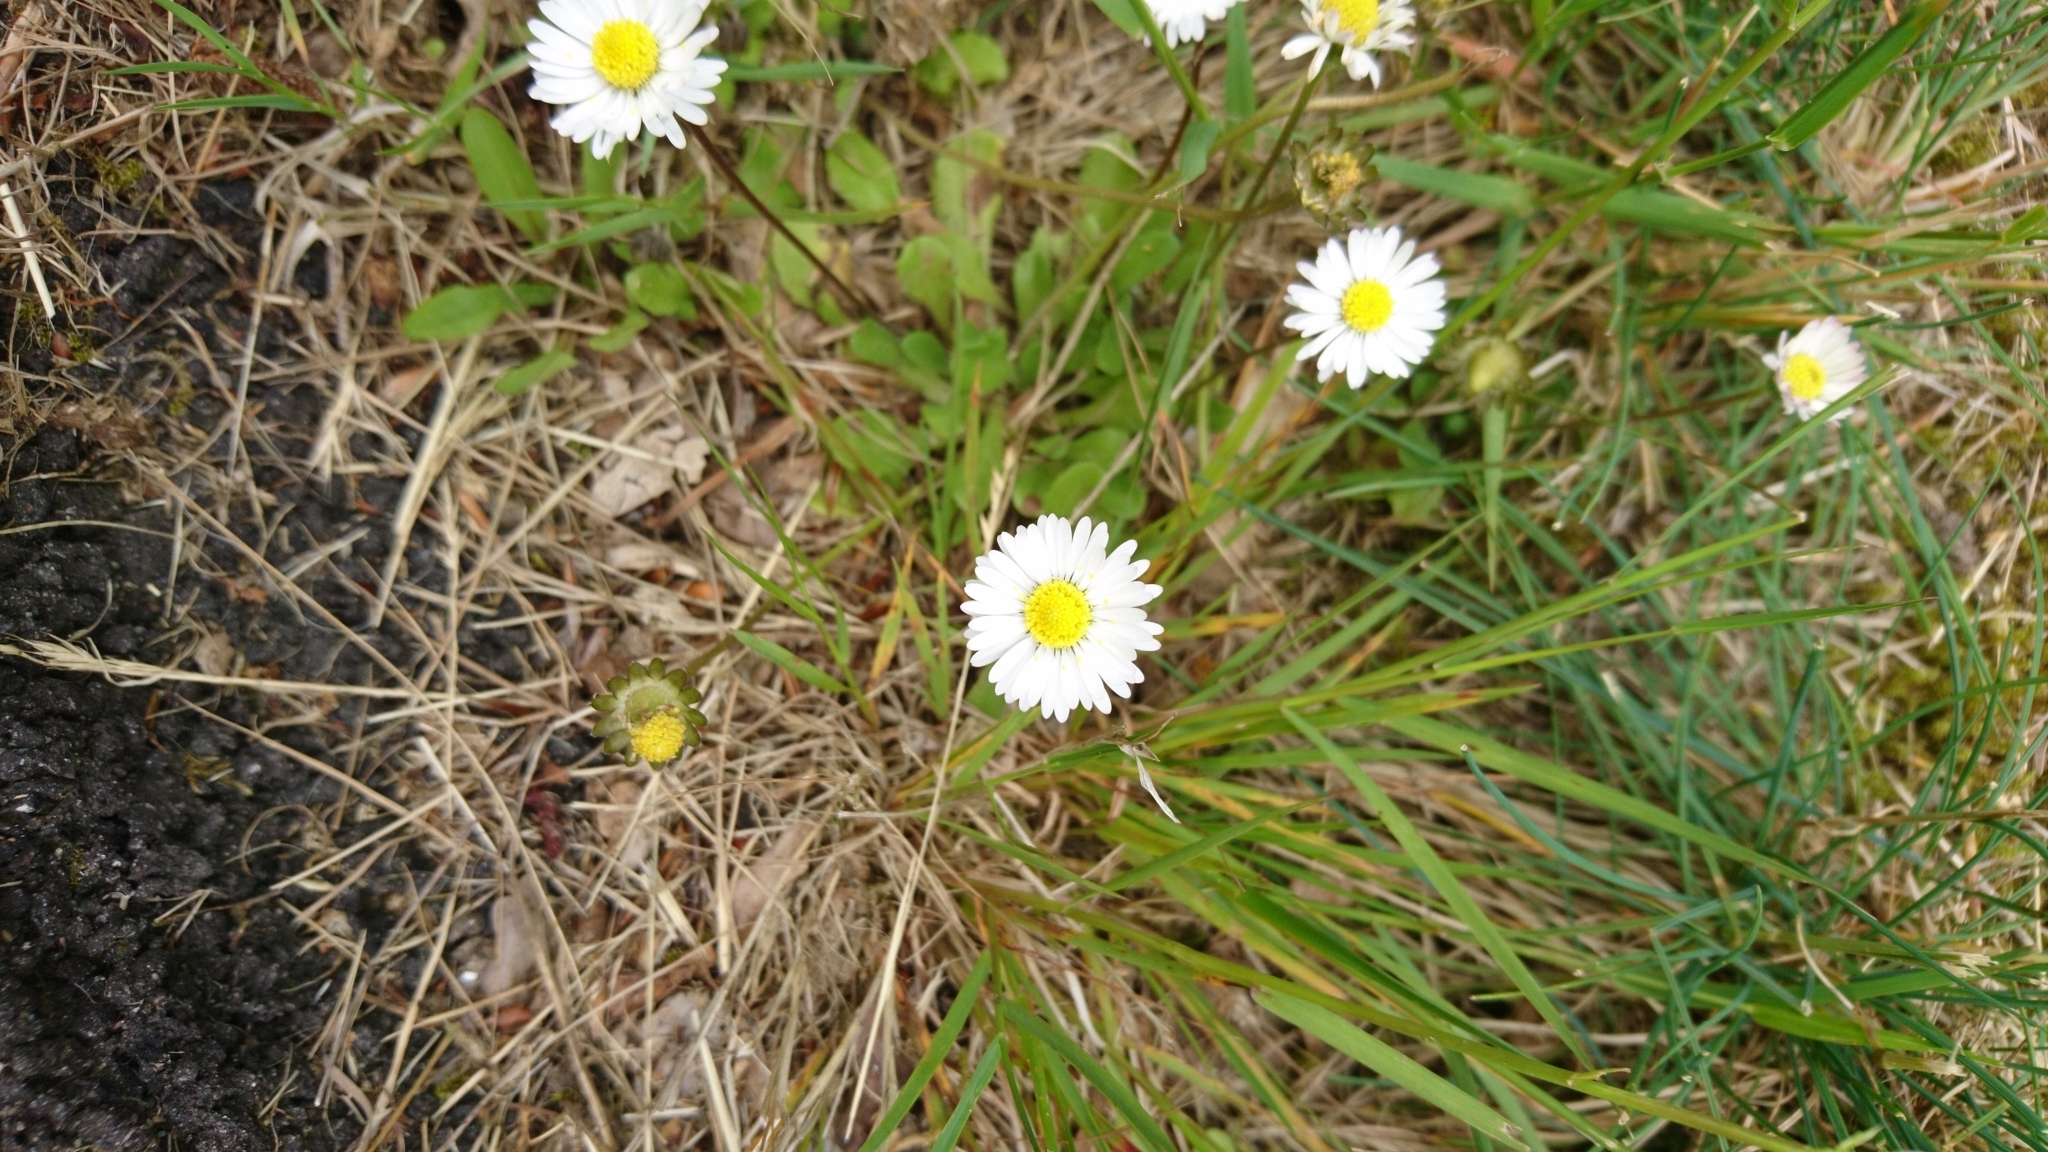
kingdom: Plantae
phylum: Tracheophyta
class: Magnoliopsida
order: Asterales
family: Asteraceae
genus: Bellis
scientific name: Bellis perennis
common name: Lawndaisy
